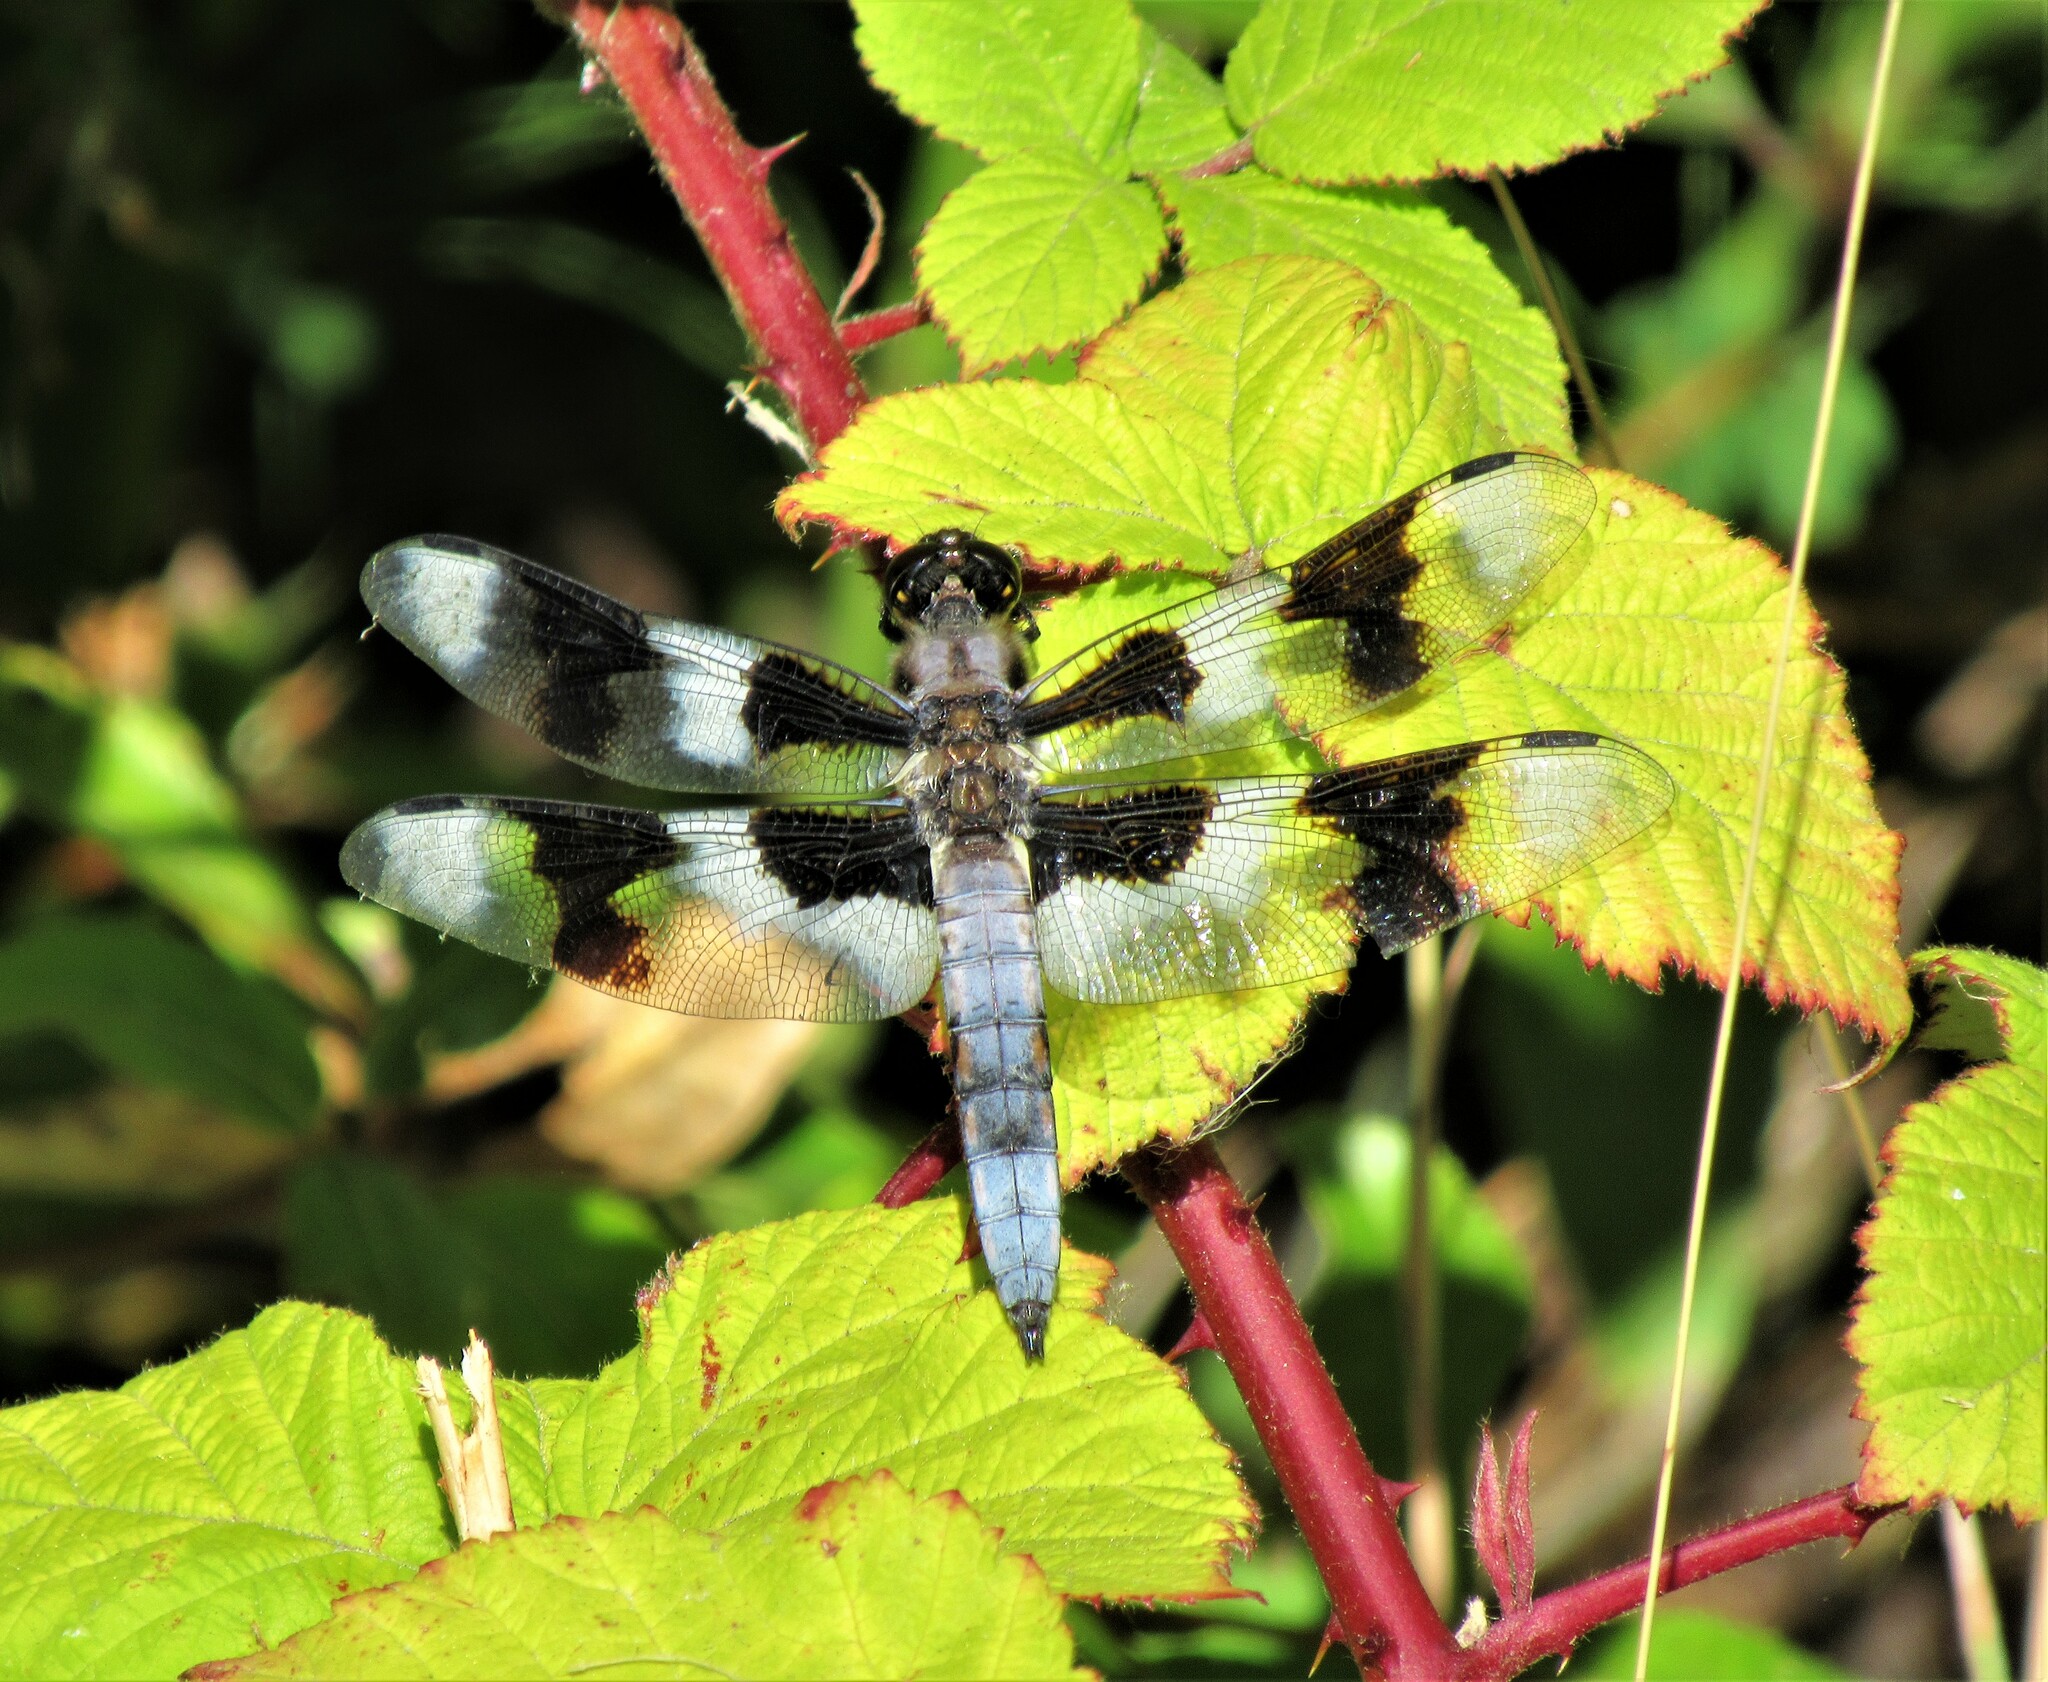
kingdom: Animalia
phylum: Arthropoda
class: Insecta
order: Odonata
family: Libellulidae
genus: Libellula
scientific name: Libellula forensis
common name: Eight-spotted skimmer
